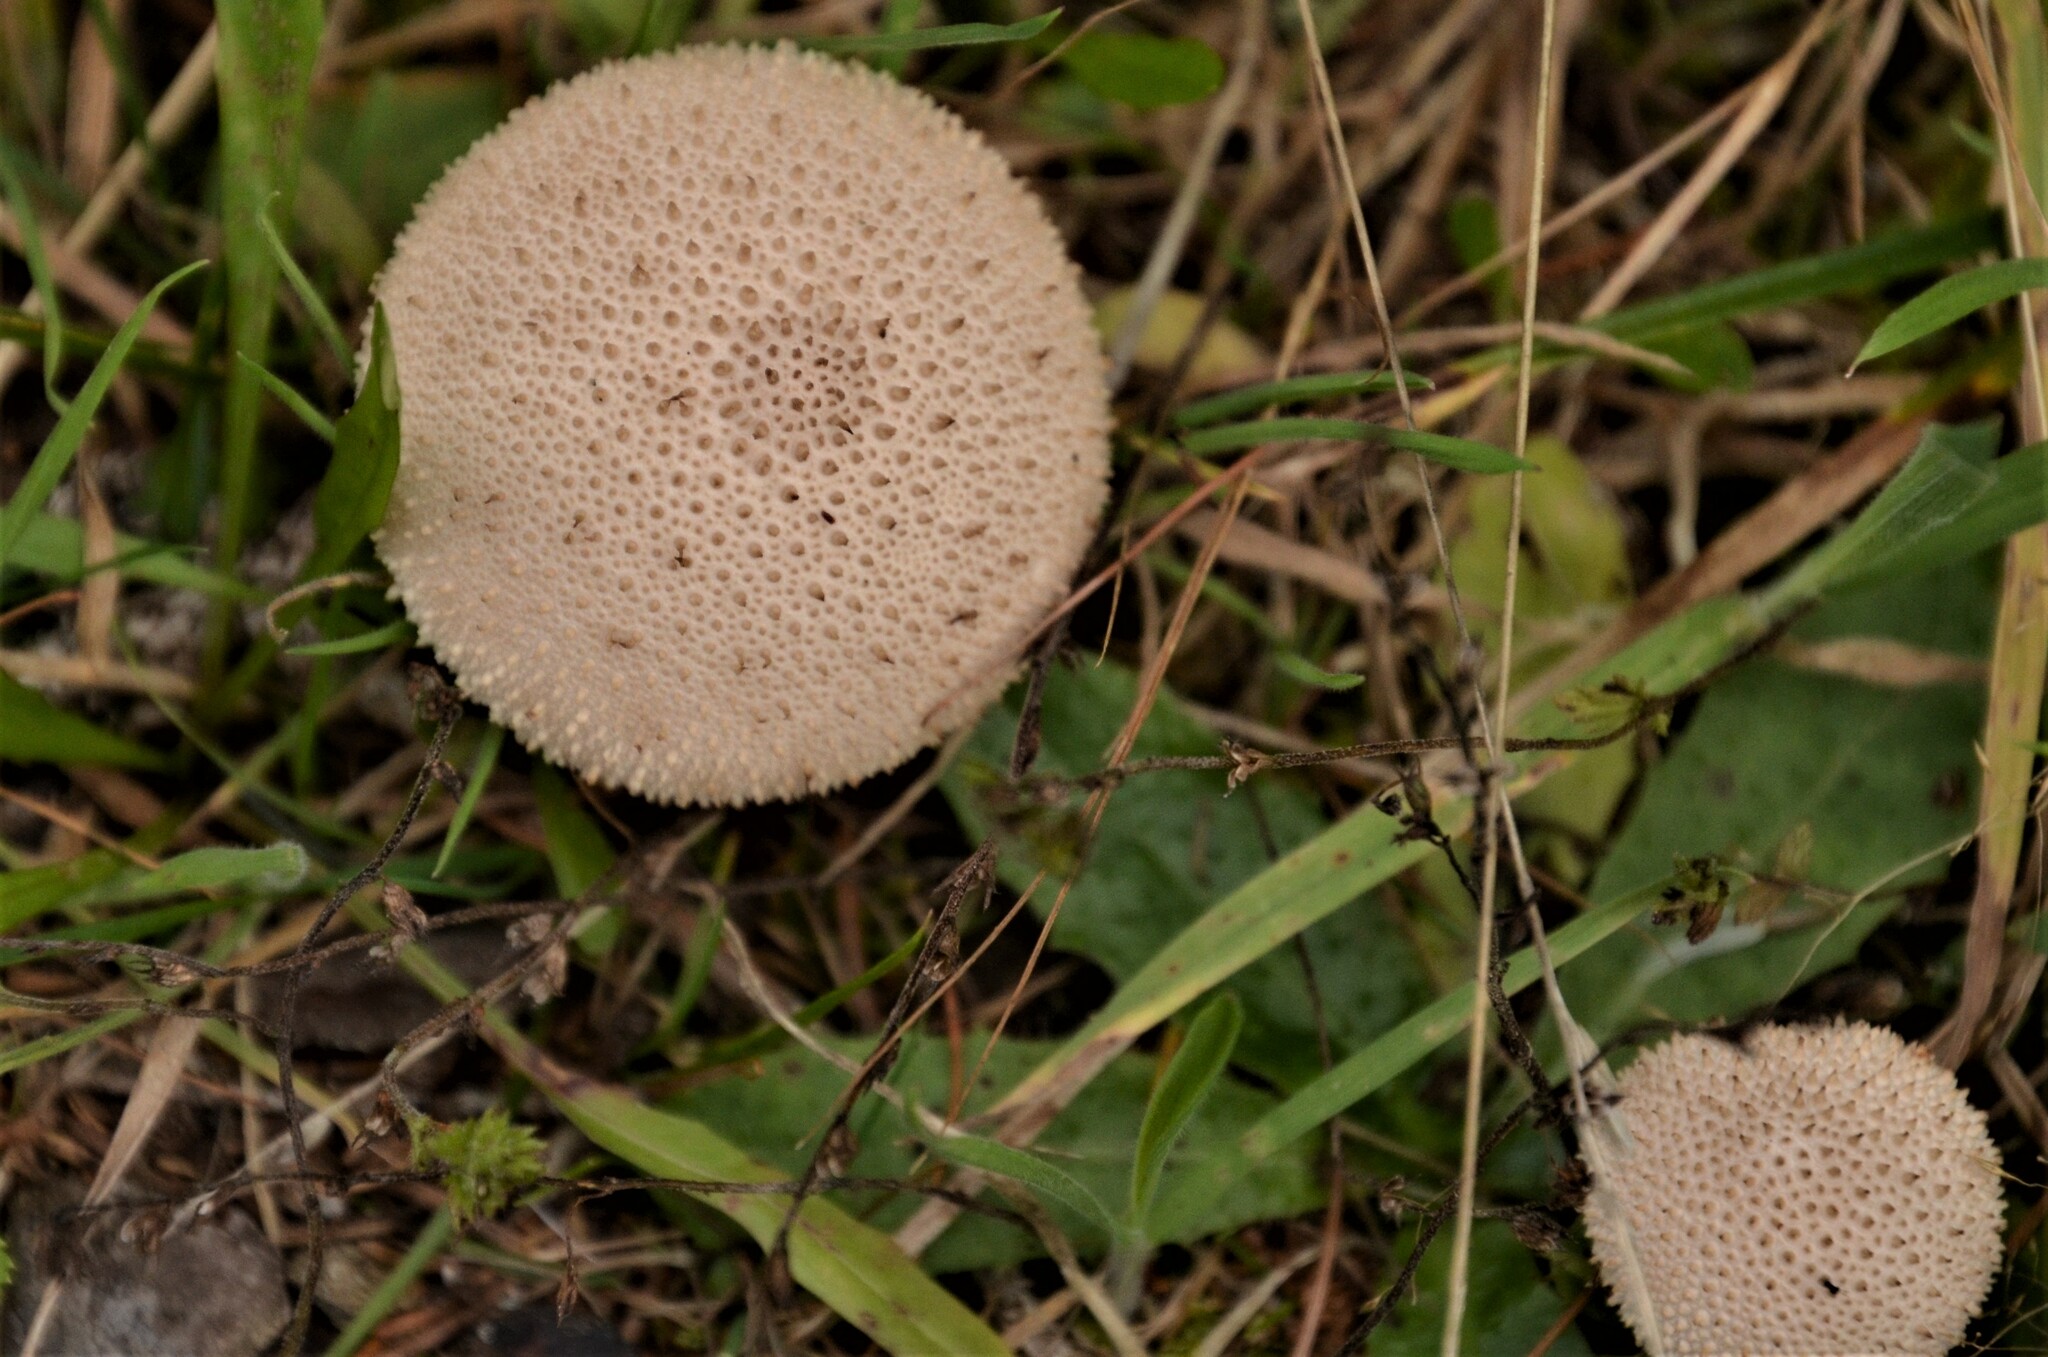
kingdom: Fungi
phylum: Basidiomycota
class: Agaricomycetes
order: Agaricales
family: Lycoperdaceae
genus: Lycoperdon
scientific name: Lycoperdon perlatum
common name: Common puffball
